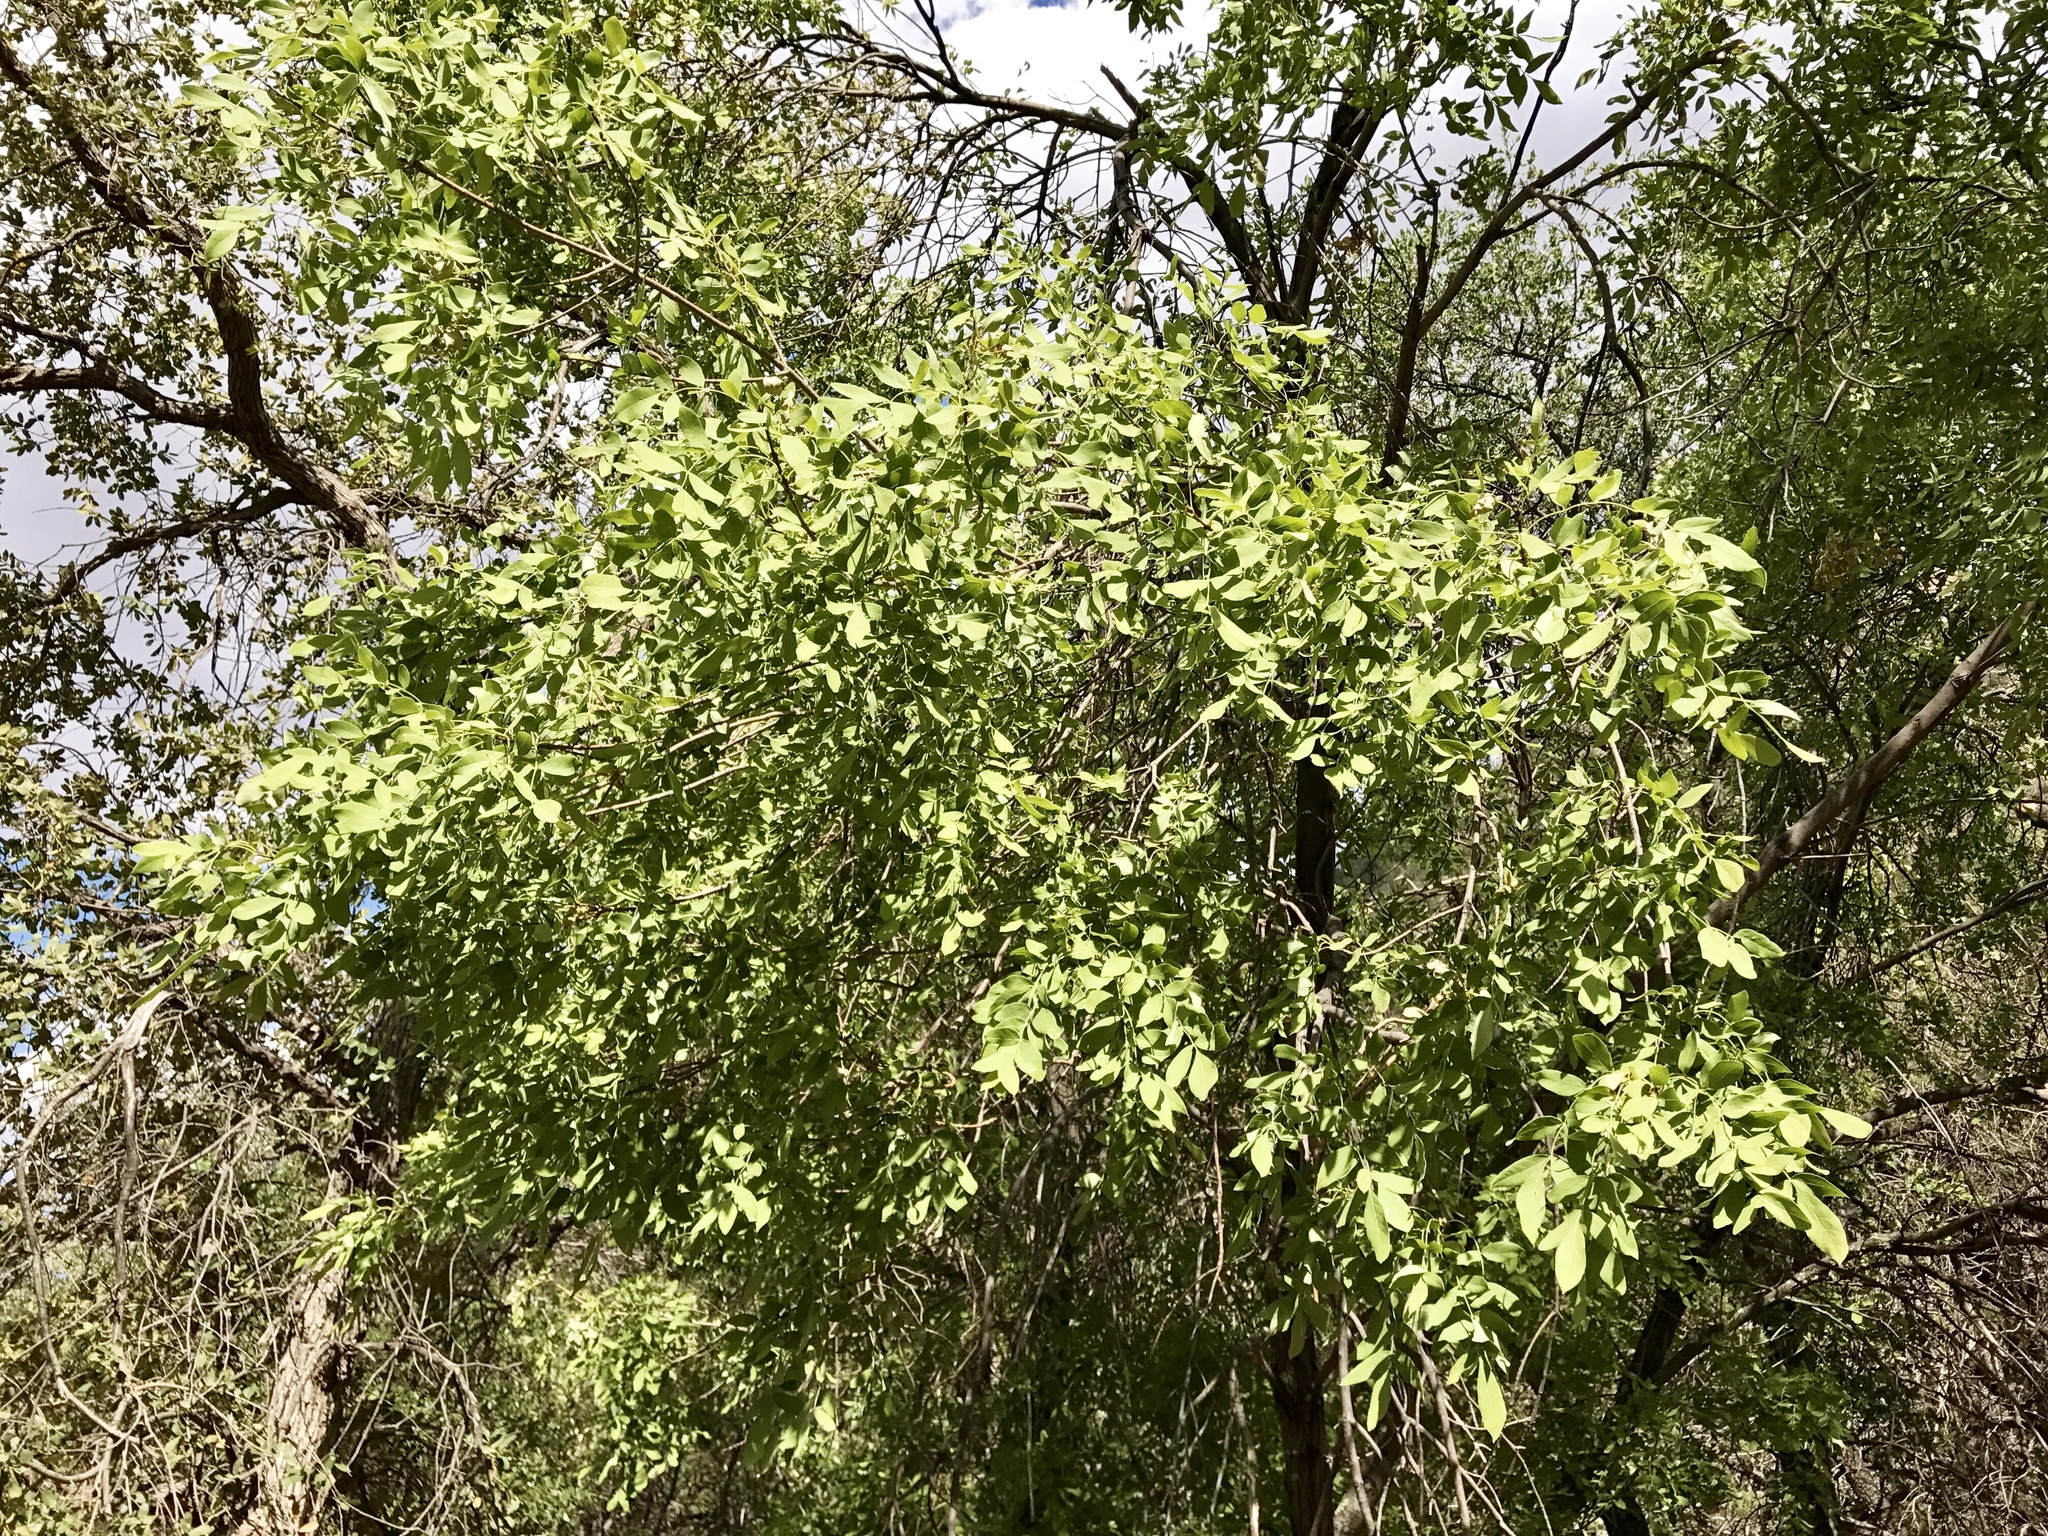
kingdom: Plantae
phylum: Tracheophyta
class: Magnoliopsida
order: Lamiales
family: Oleaceae
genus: Fraxinus
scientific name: Fraxinus velutina
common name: Arizon ash
